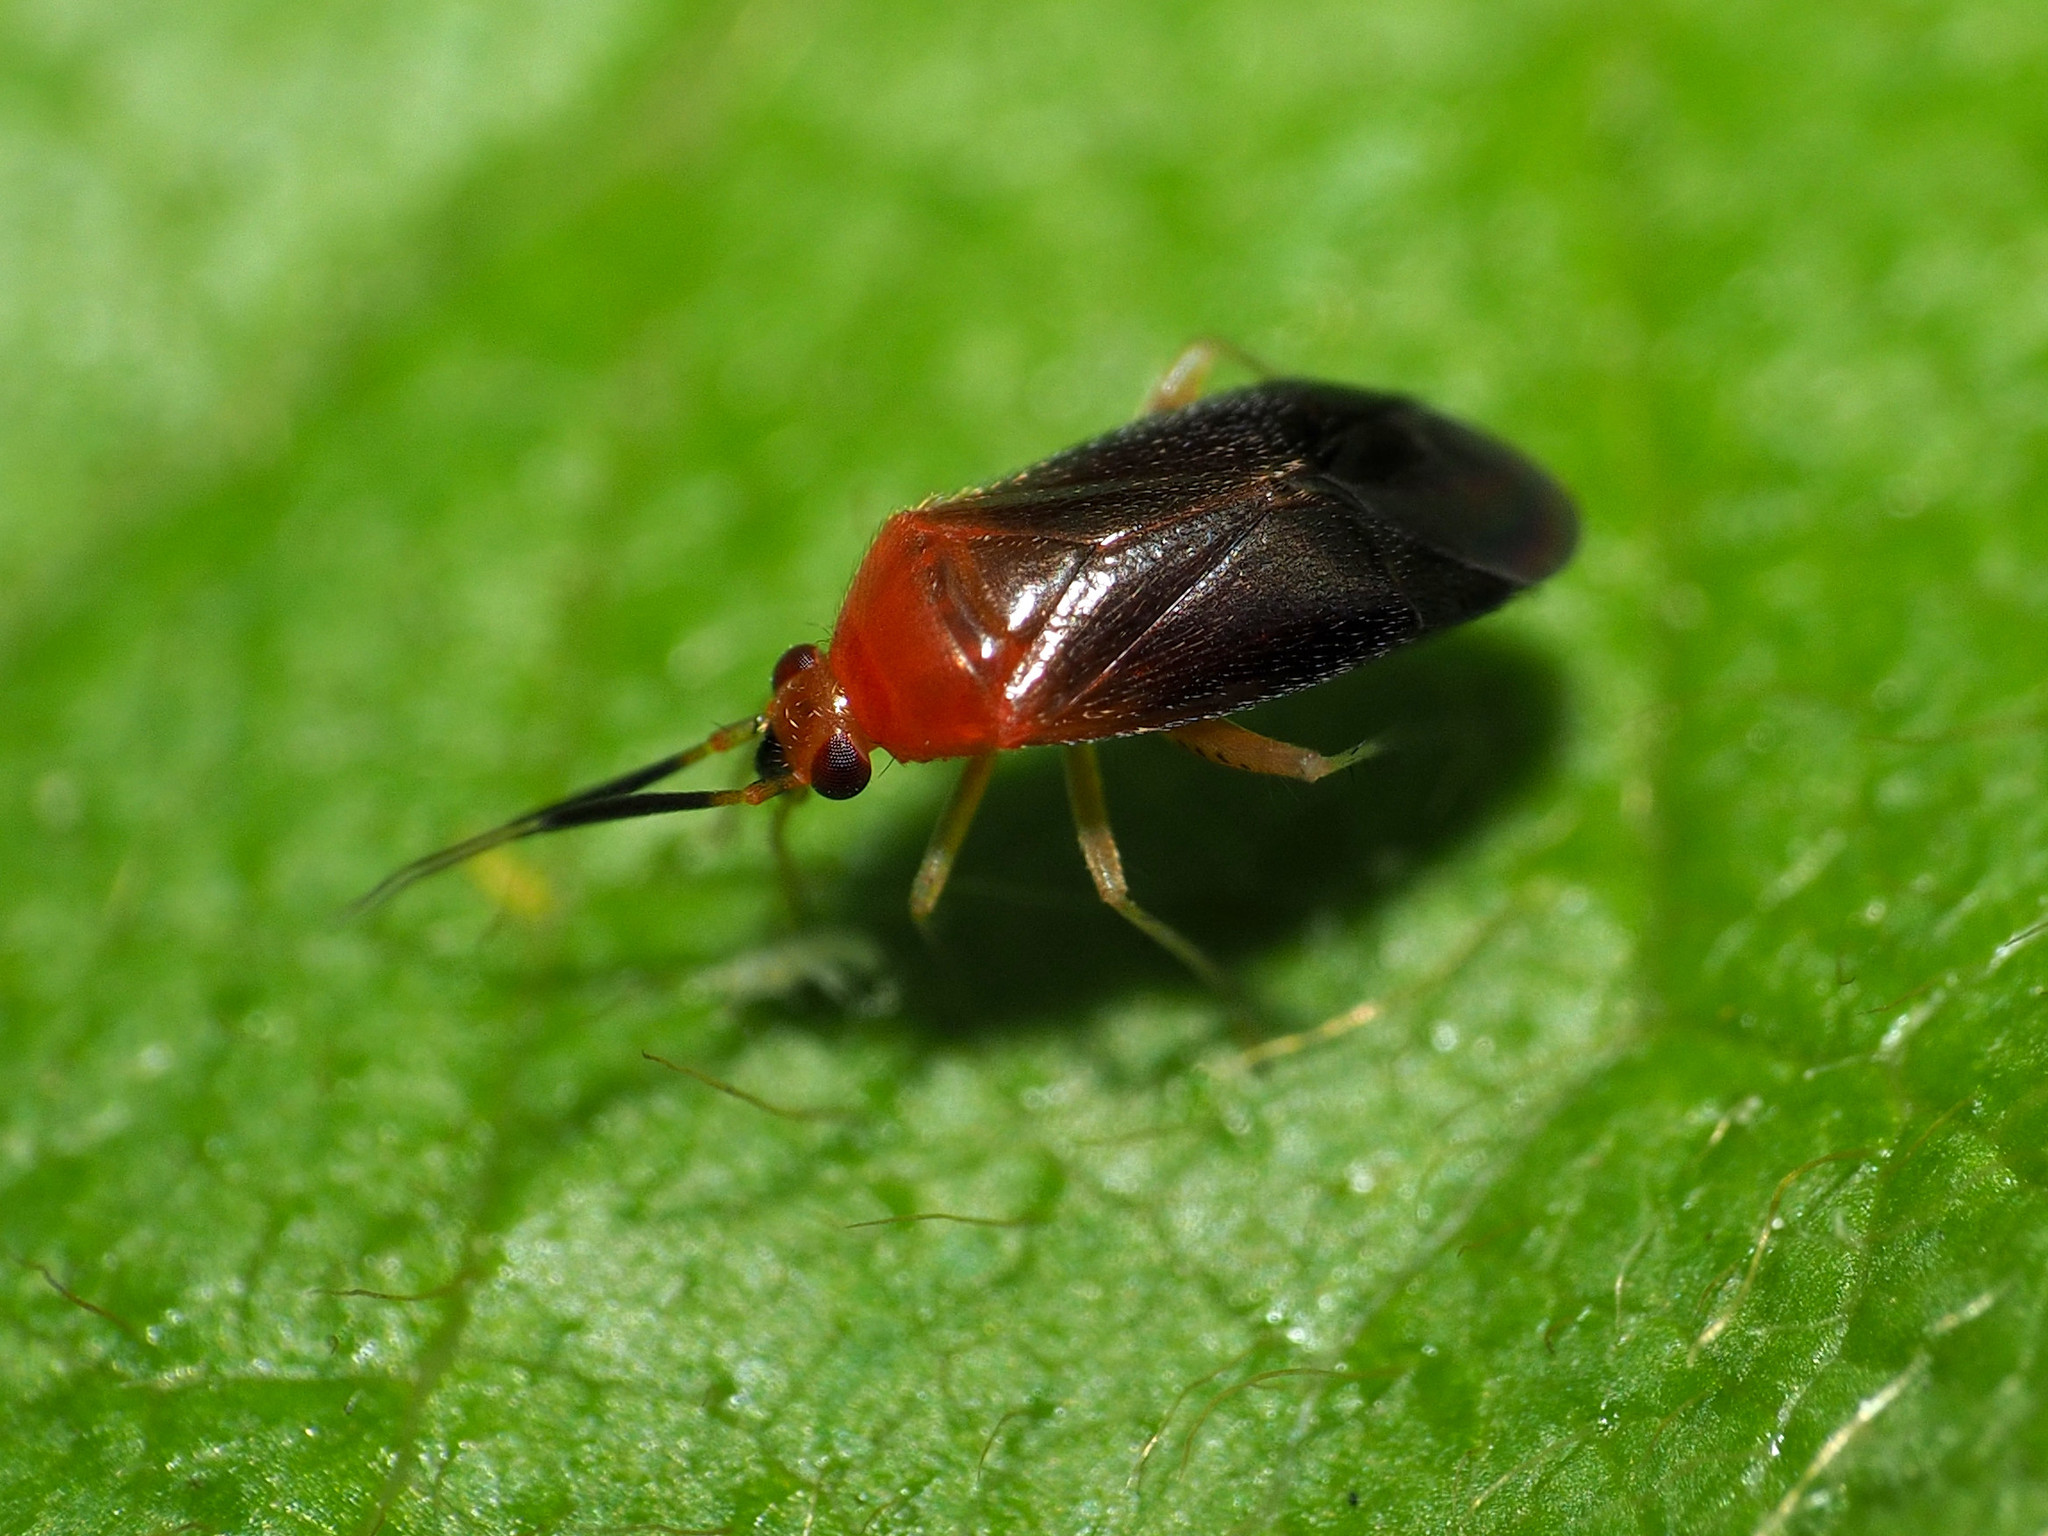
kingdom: Animalia
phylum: Arthropoda
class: Insecta
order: Hemiptera
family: Miridae
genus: Rhinocapsus
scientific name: Rhinocapsus rubricans
